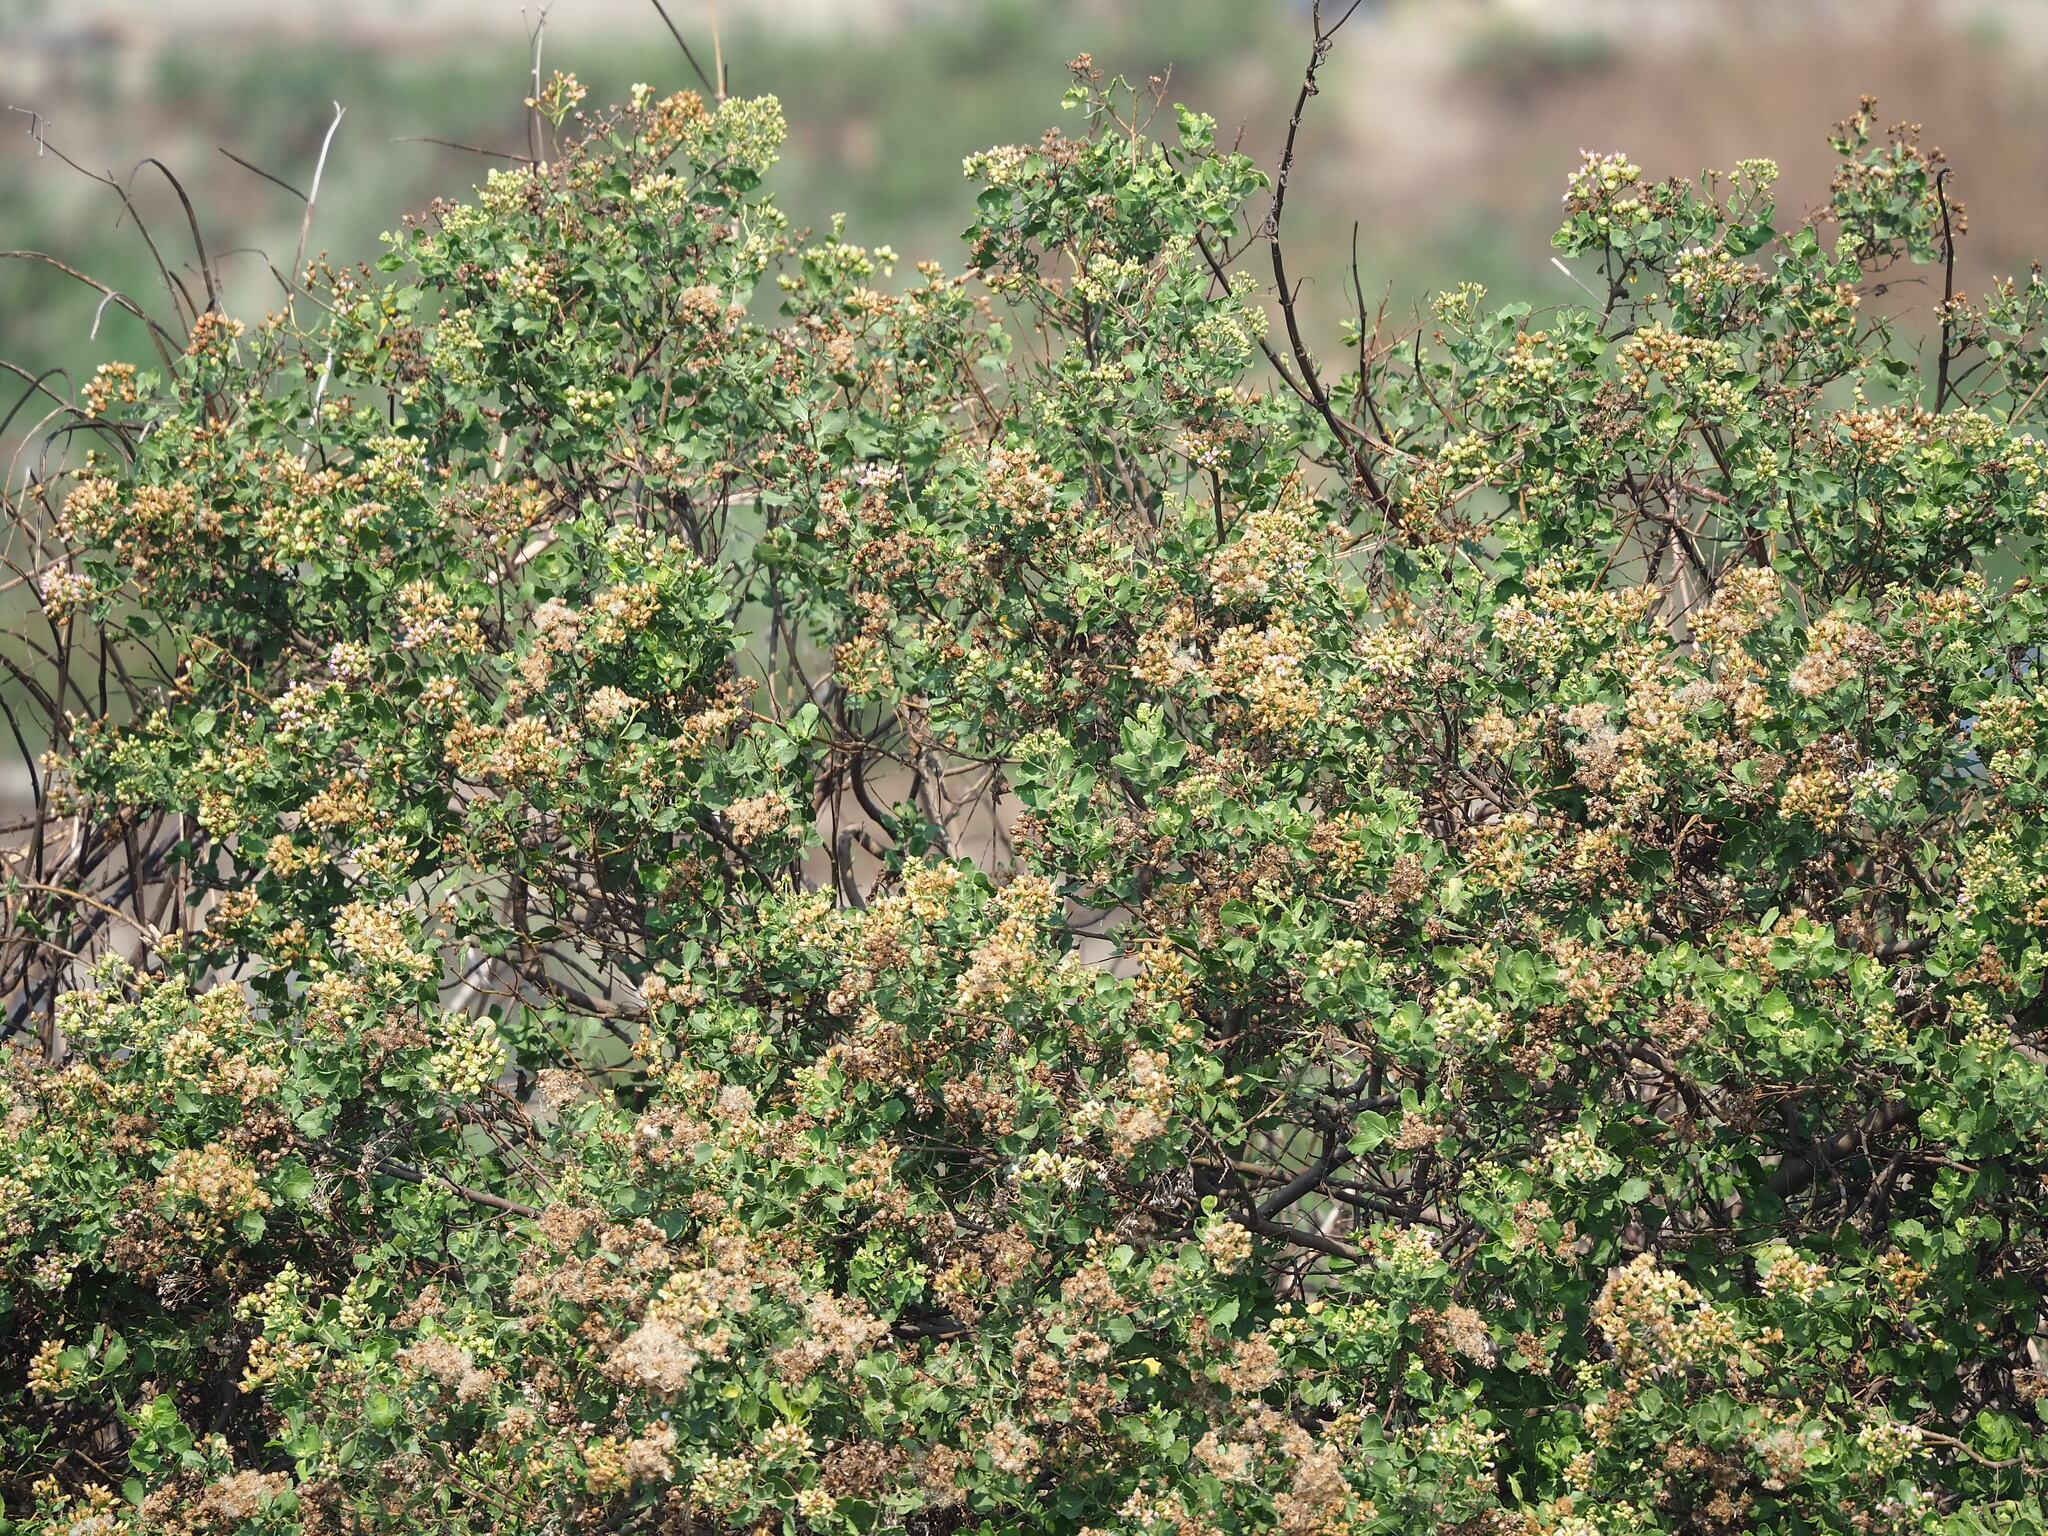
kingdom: Plantae
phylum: Tracheophyta
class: Magnoliopsida
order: Asterales
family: Asteraceae
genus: Pluchea
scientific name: Pluchea indica
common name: Indian fleabane
